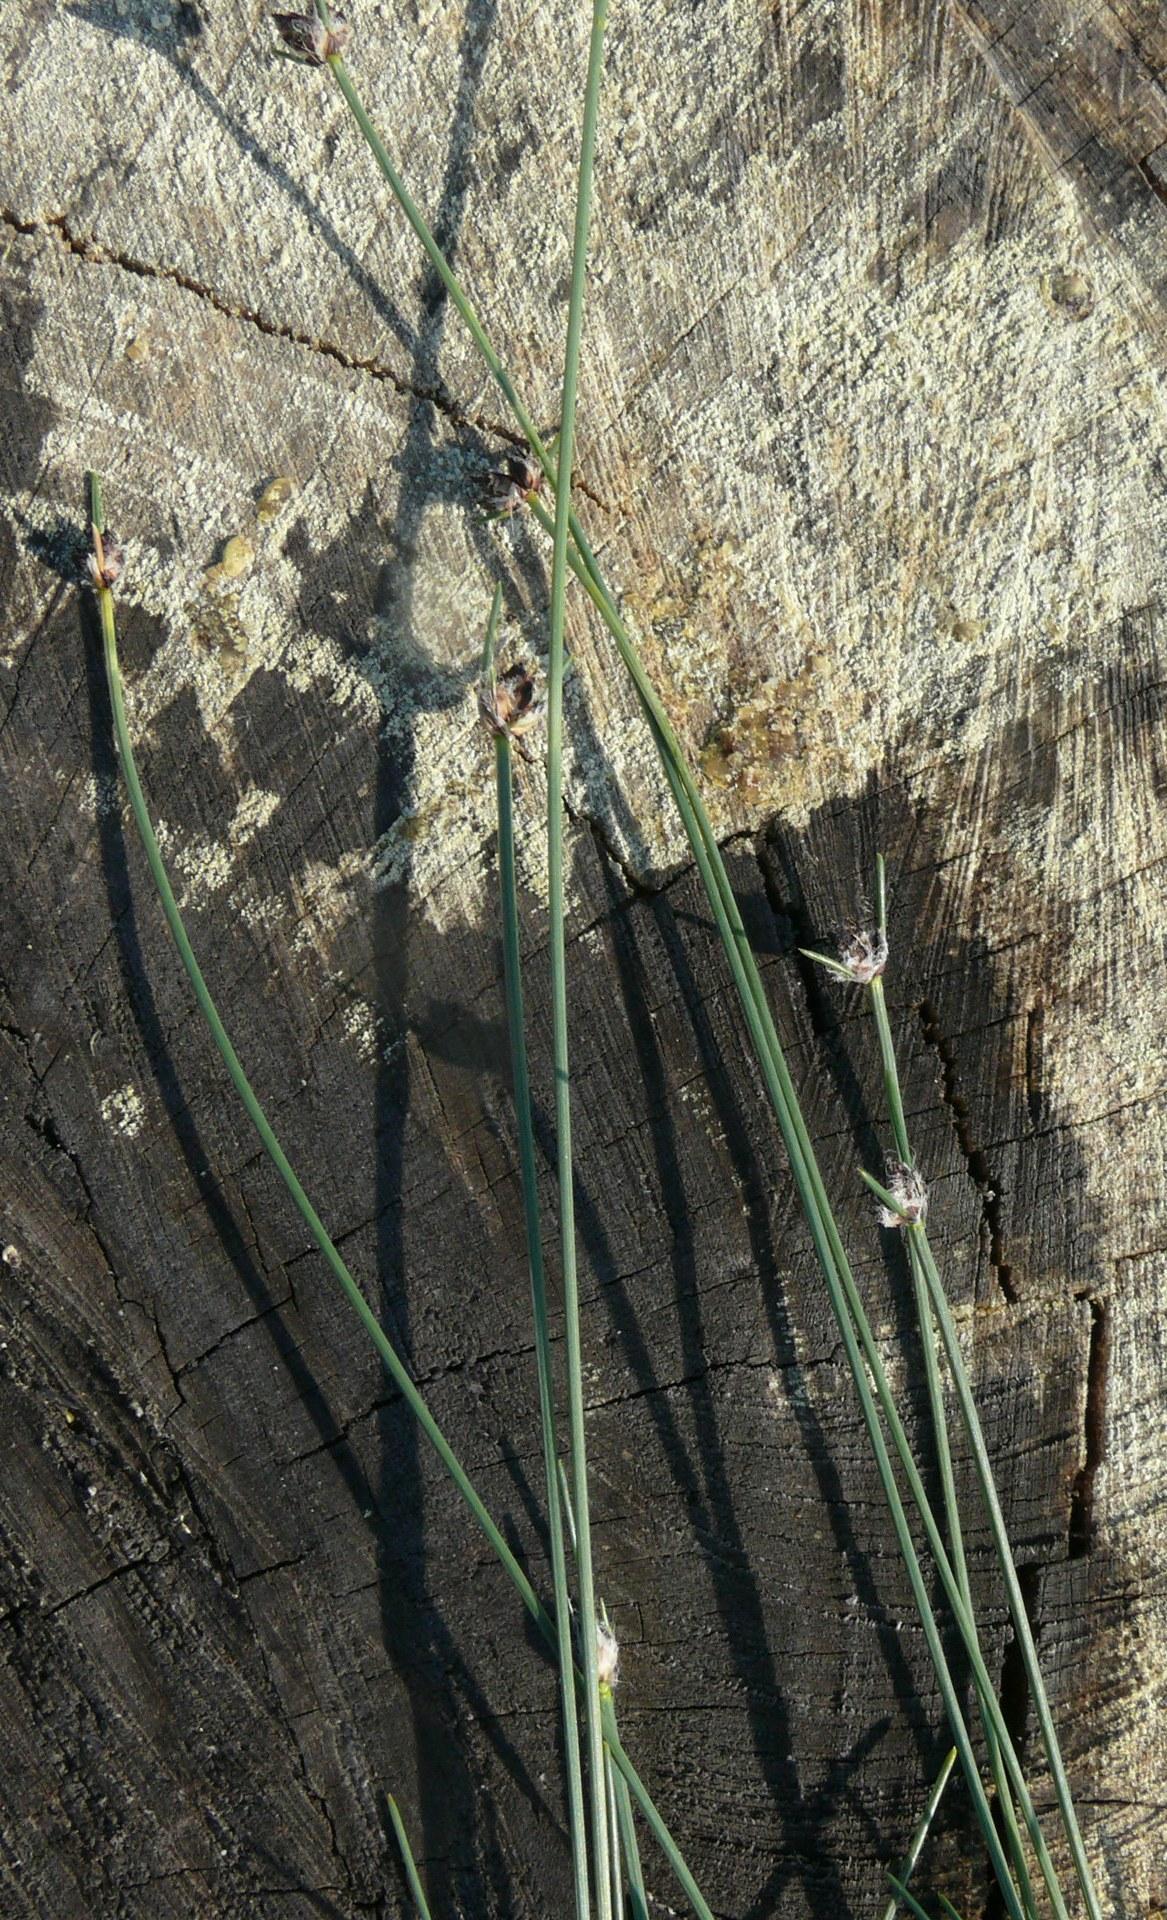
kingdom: Plantae
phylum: Tracheophyta
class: Liliopsida
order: Poales
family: Cyperaceae
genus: Ficinia
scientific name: Ficinia paradoxa
